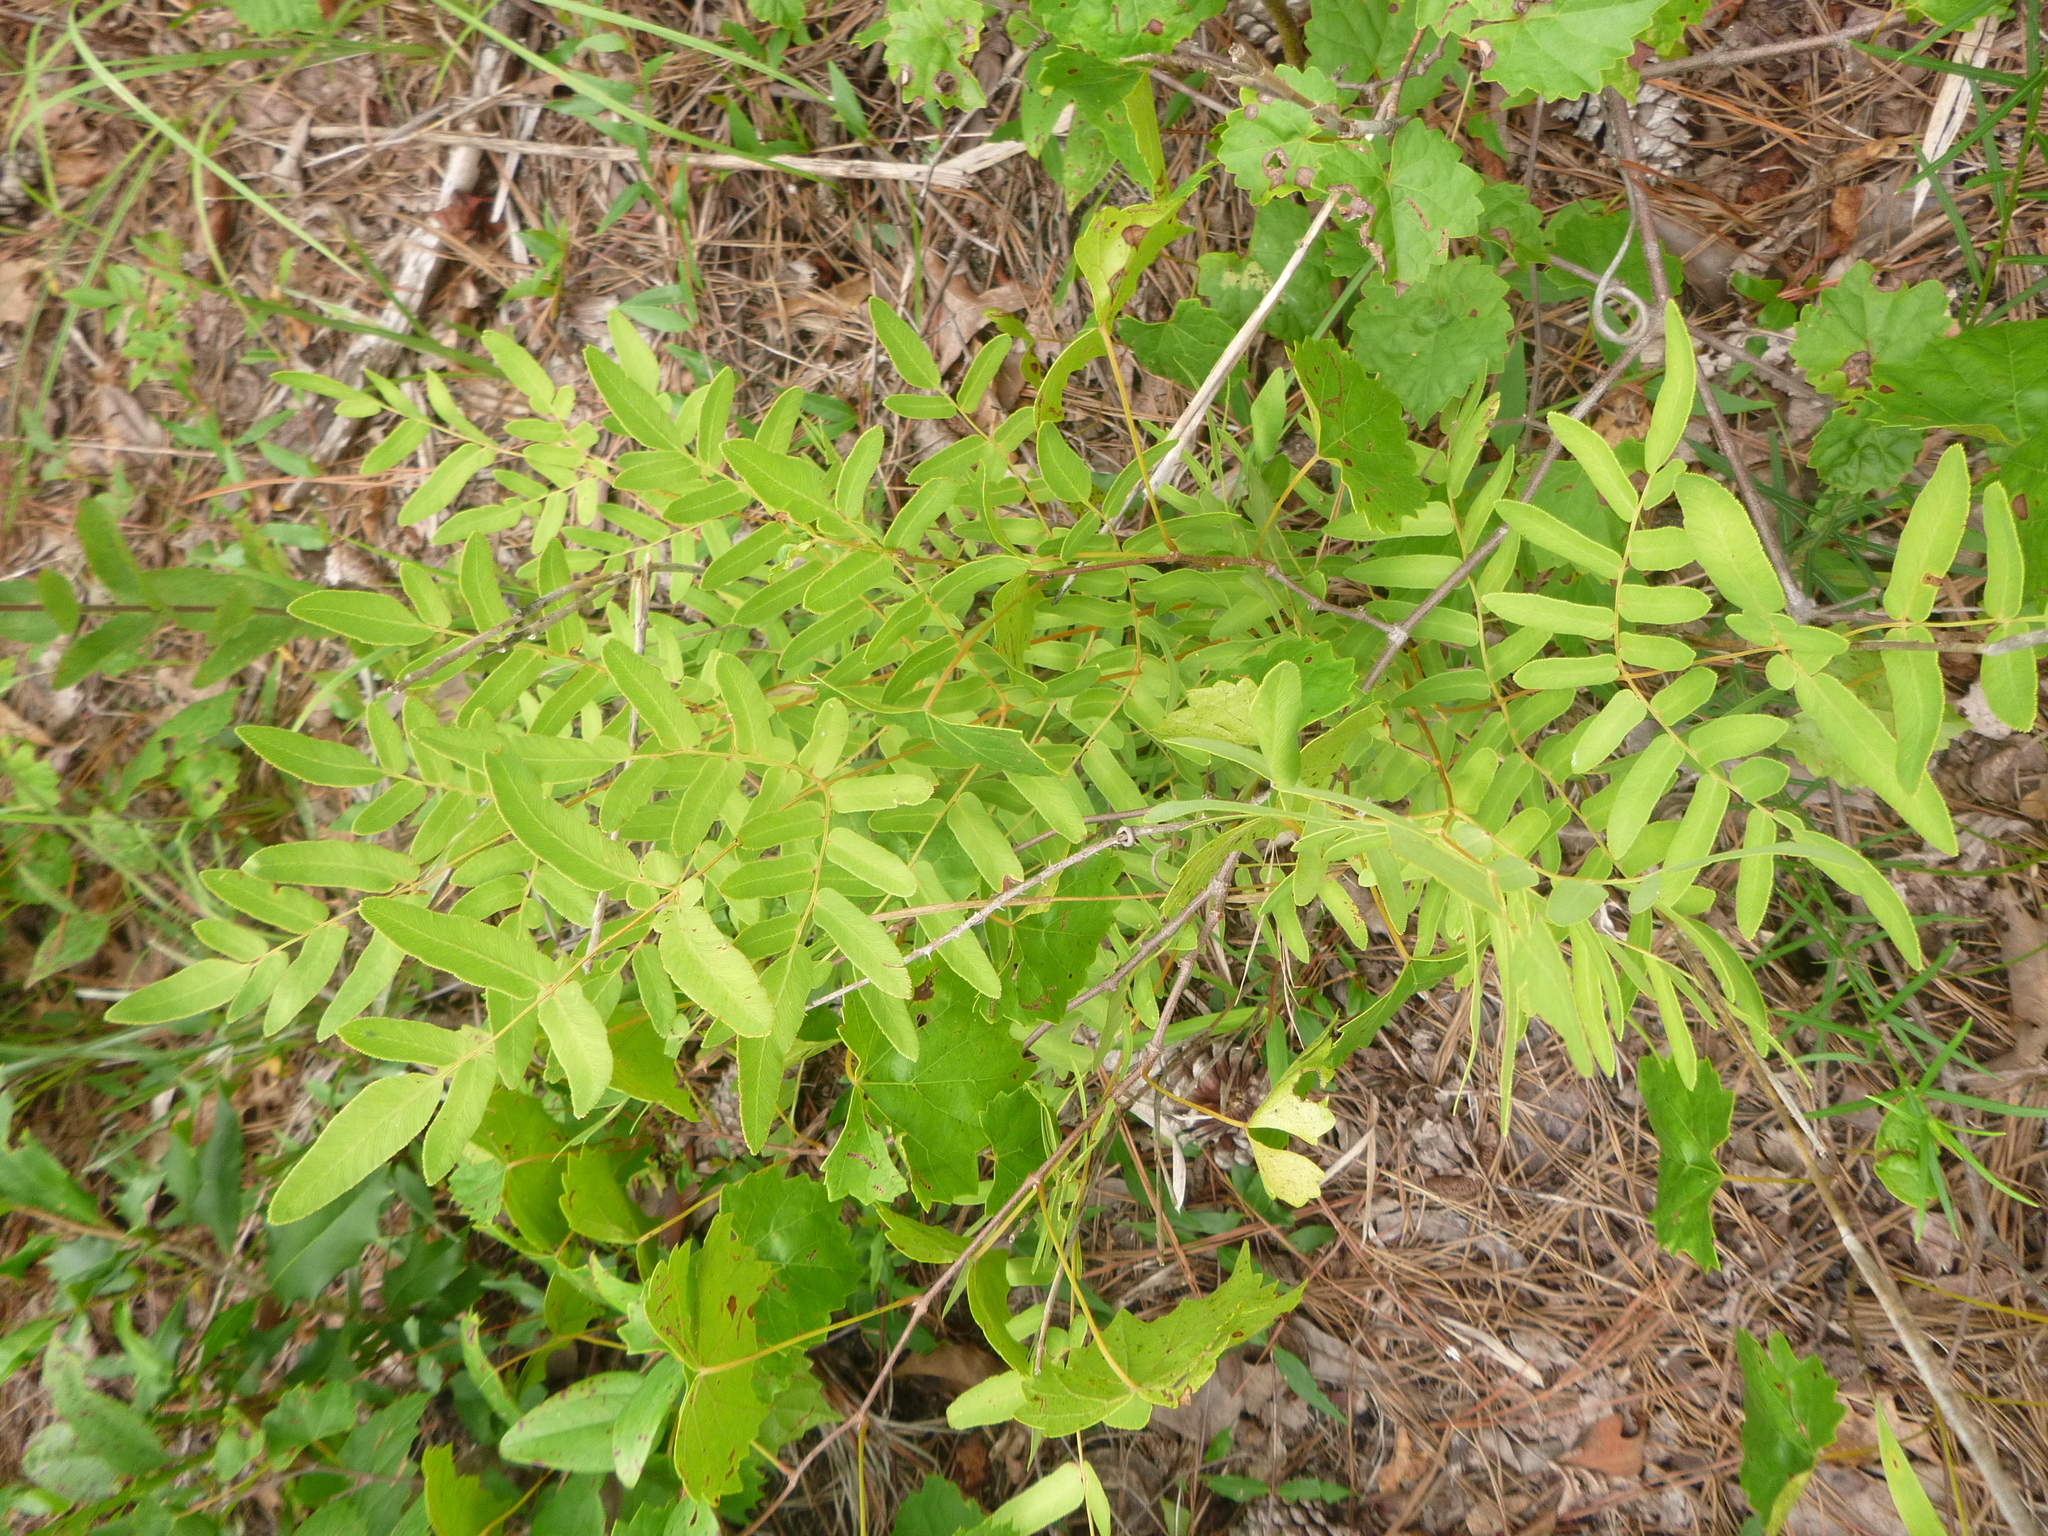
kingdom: Plantae
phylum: Tracheophyta
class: Polypodiopsida
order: Osmundales
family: Osmundaceae
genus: Osmunda
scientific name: Osmunda spectabilis
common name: American royal fern
